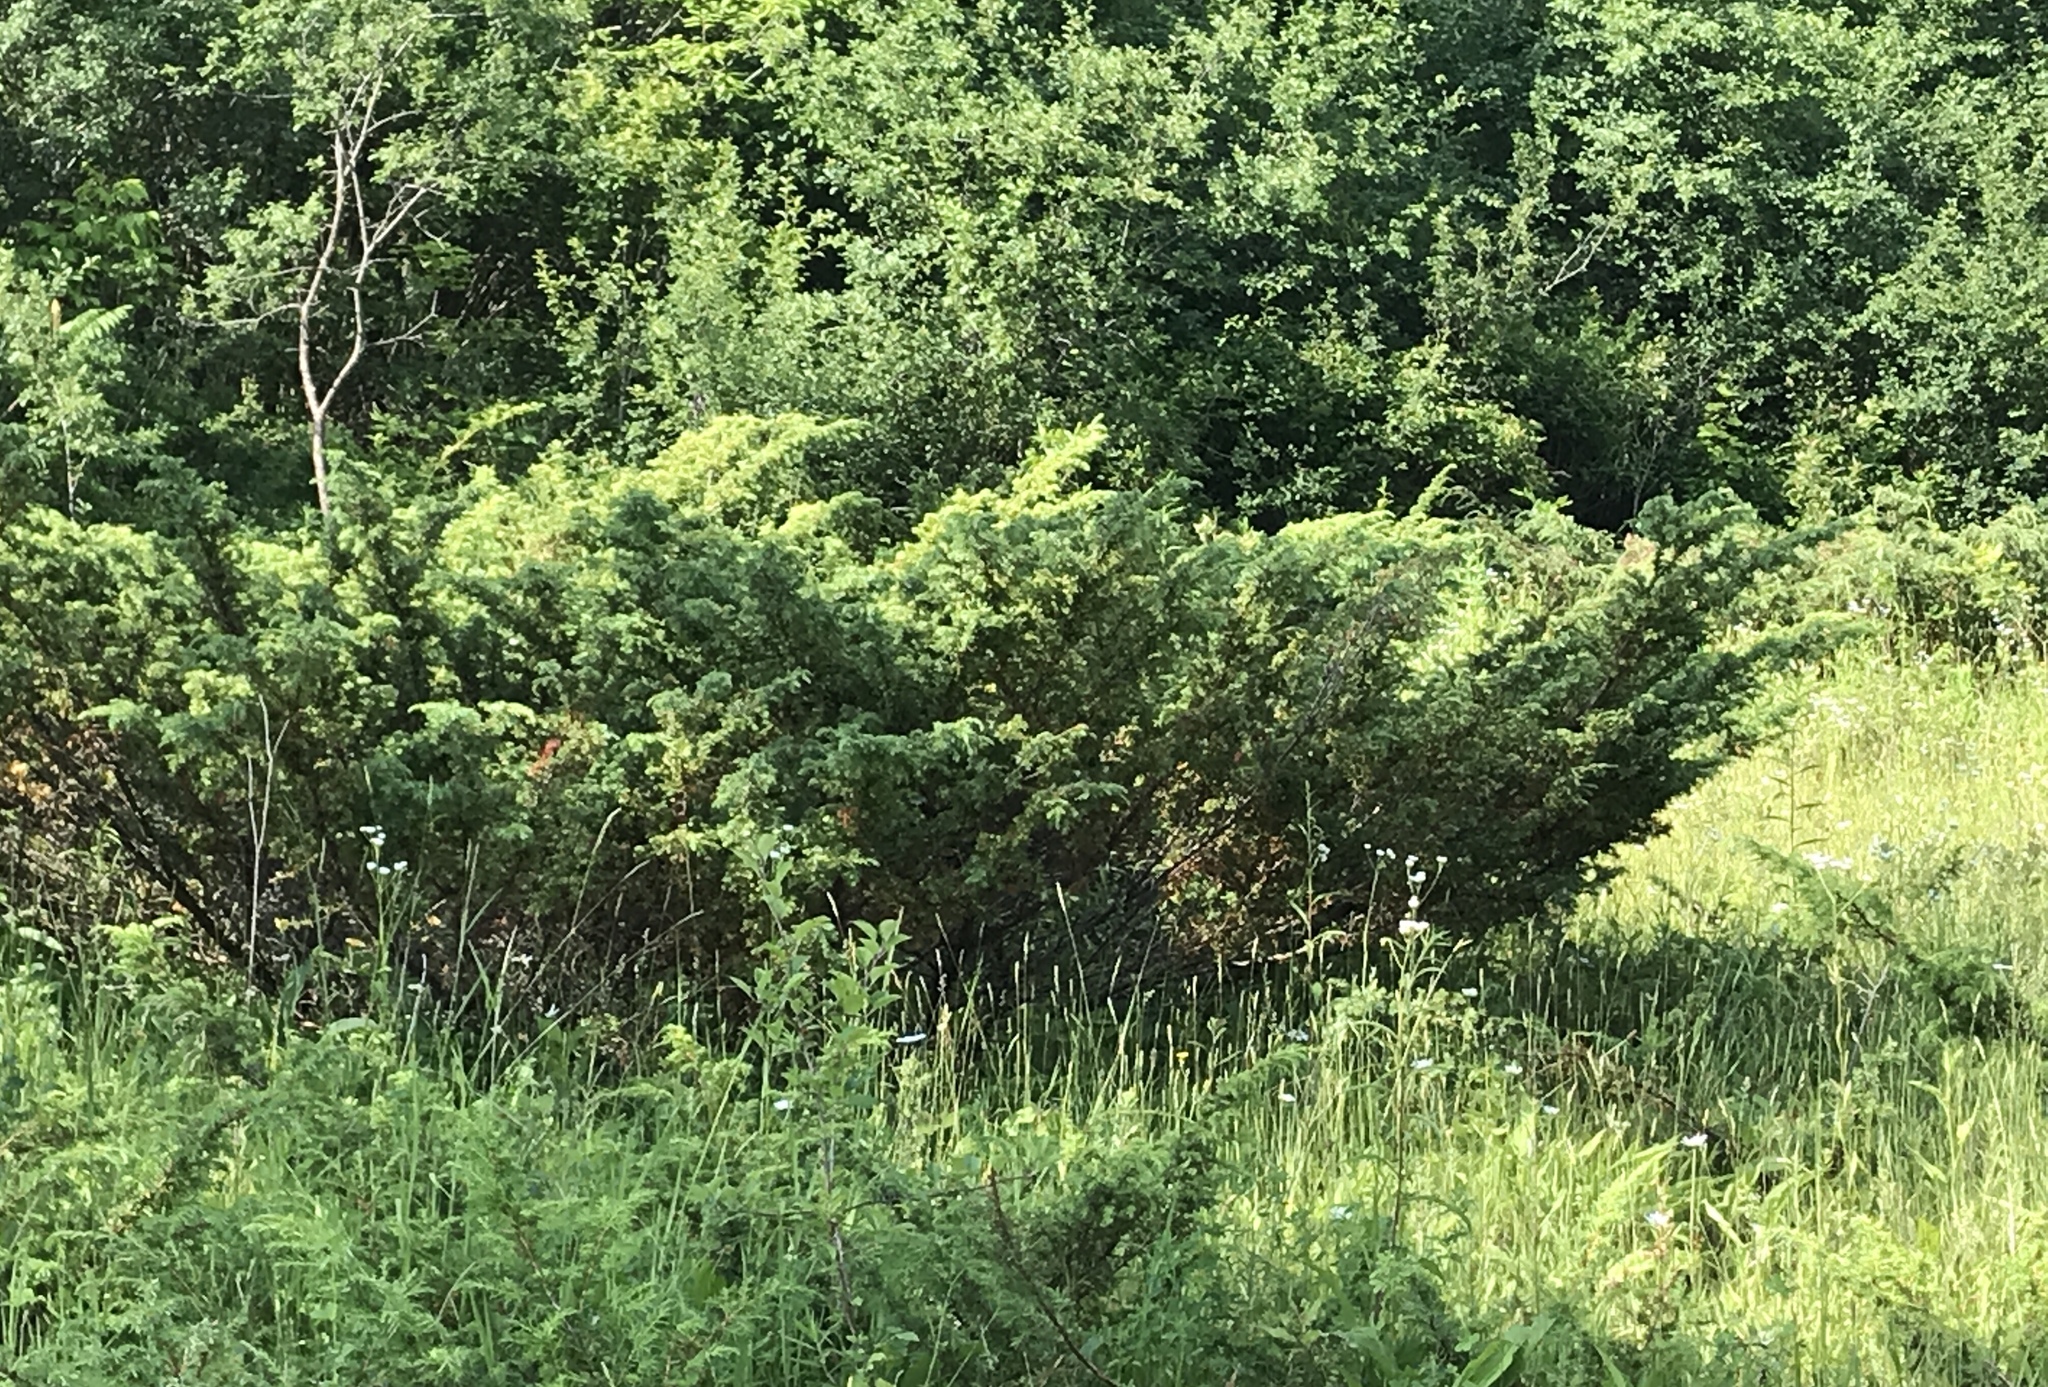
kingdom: Plantae
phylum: Tracheophyta
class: Pinopsida
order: Pinales
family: Cupressaceae
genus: Juniperus
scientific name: Juniperus communis
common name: Common juniper
